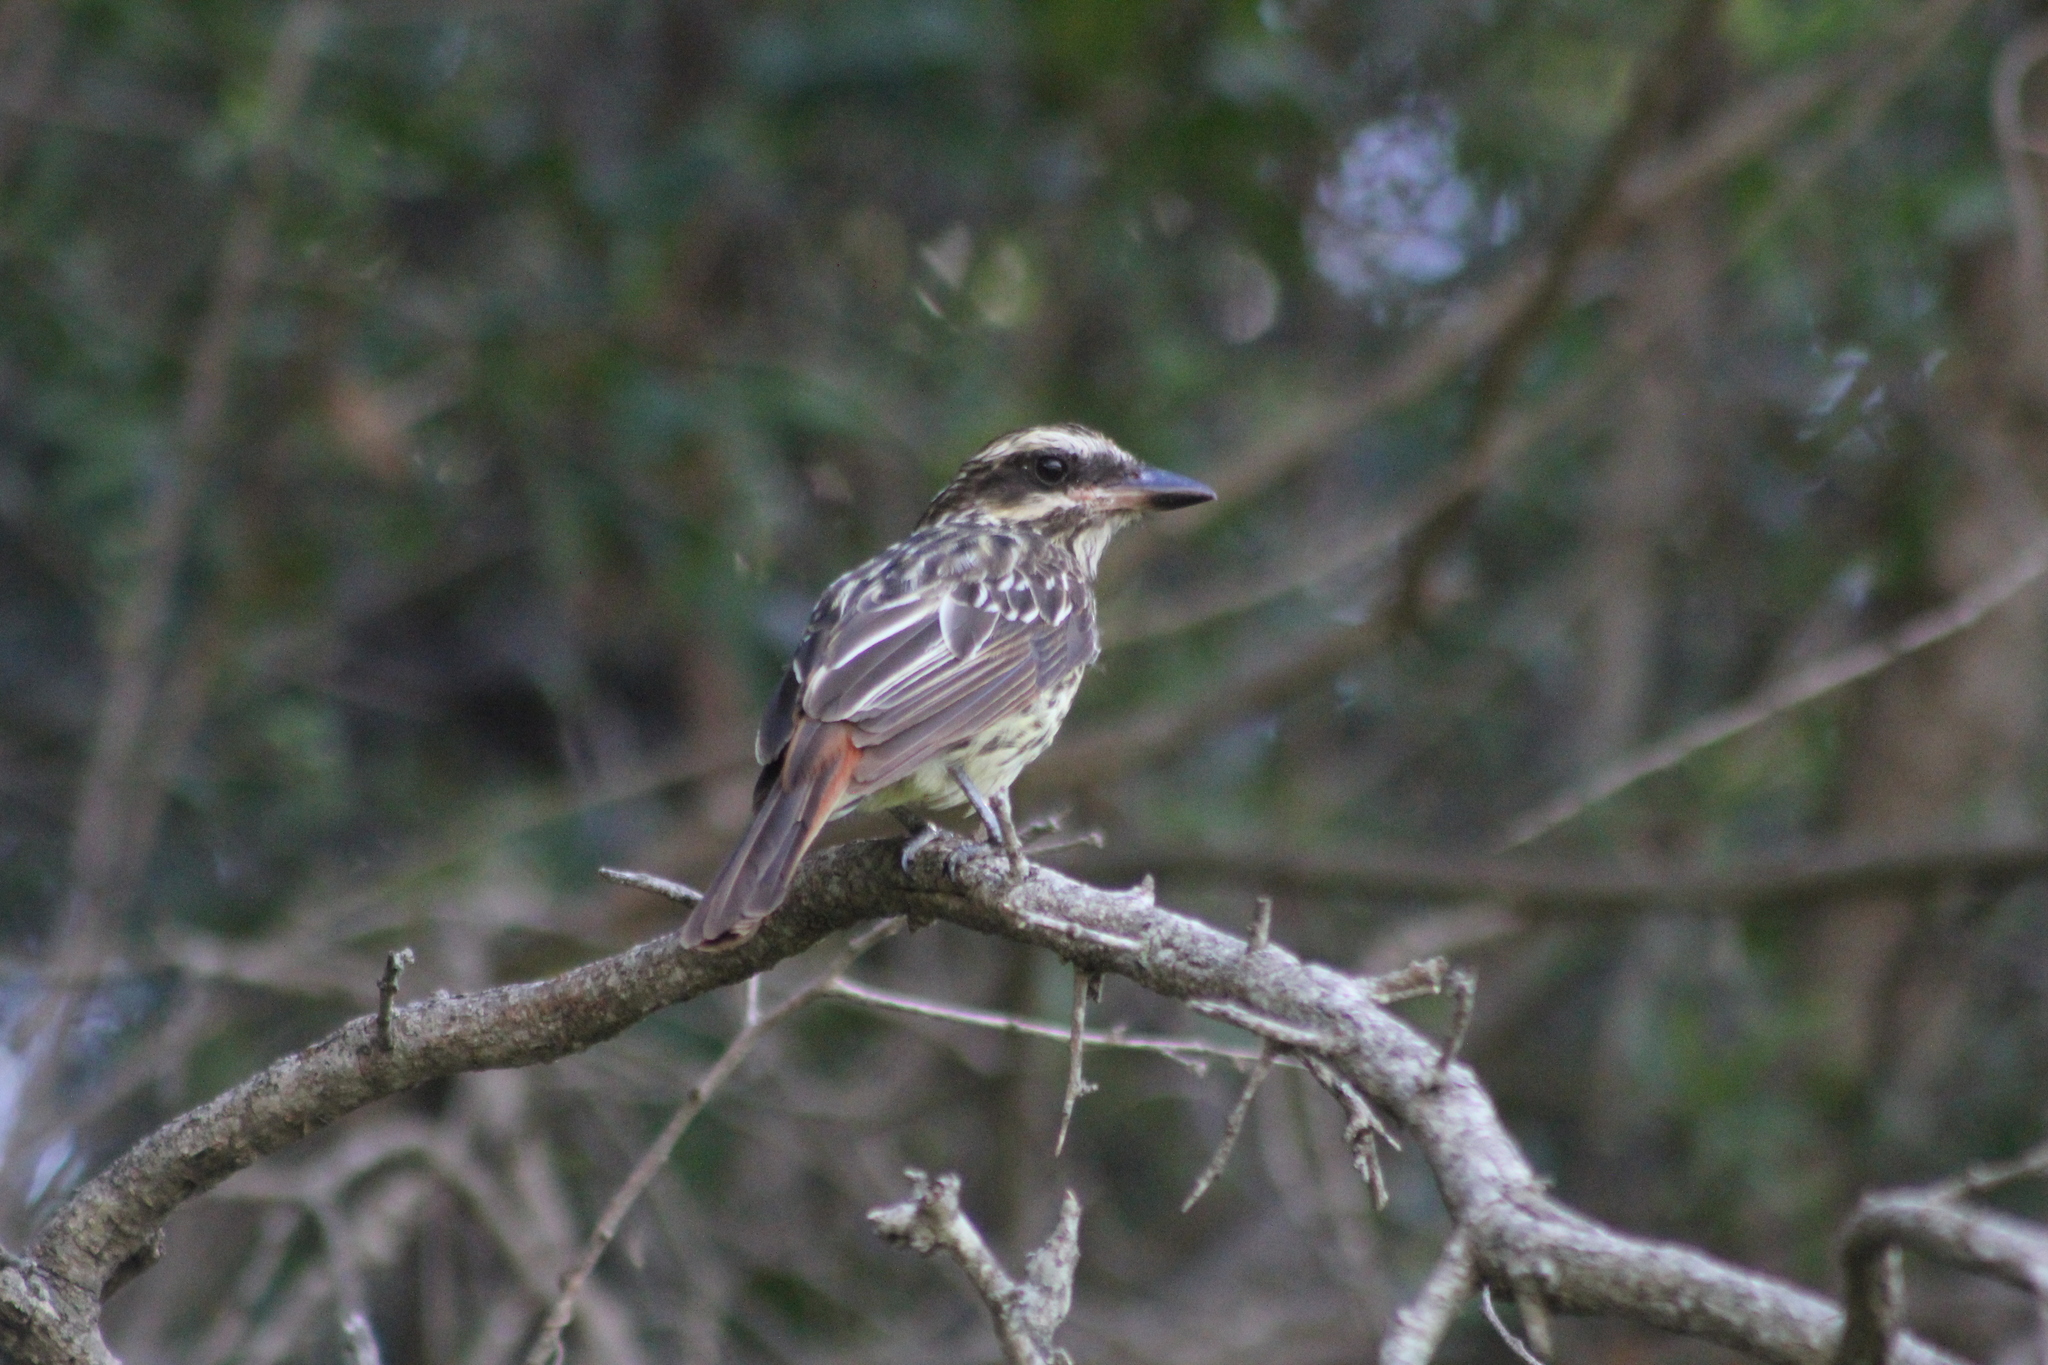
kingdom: Animalia
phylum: Chordata
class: Aves
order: Passeriformes
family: Tyrannidae
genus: Myiodynastes
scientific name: Myiodynastes maculatus
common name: Streaked flycatcher
